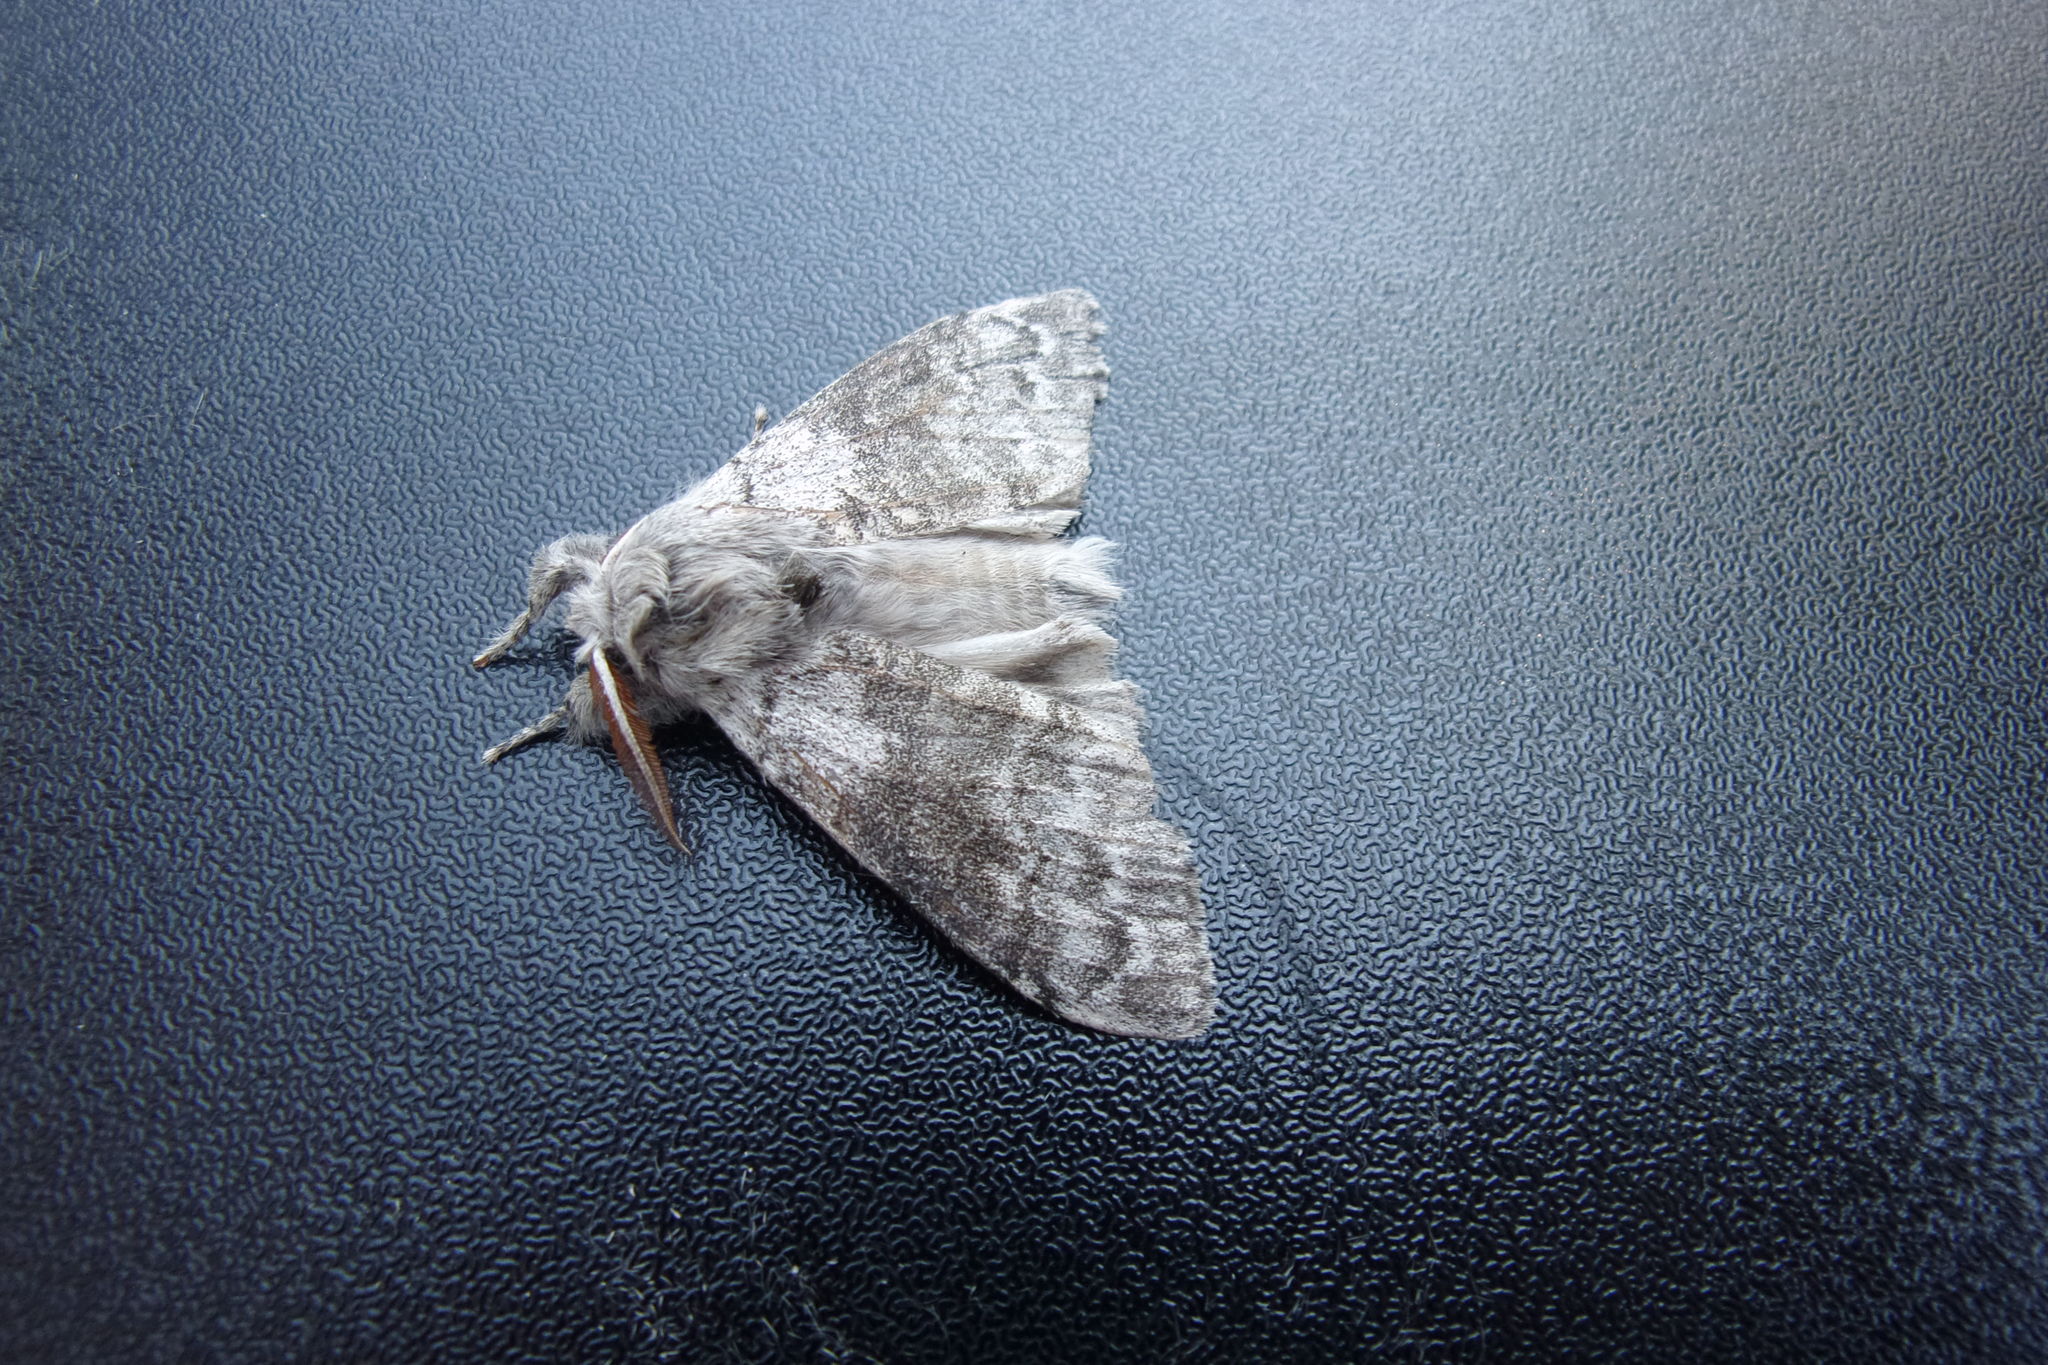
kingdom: Animalia
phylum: Arthropoda
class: Insecta
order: Lepidoptera
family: Erebidae
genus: Calliteara
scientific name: Calliteara pudibunda
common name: Pale tussock
